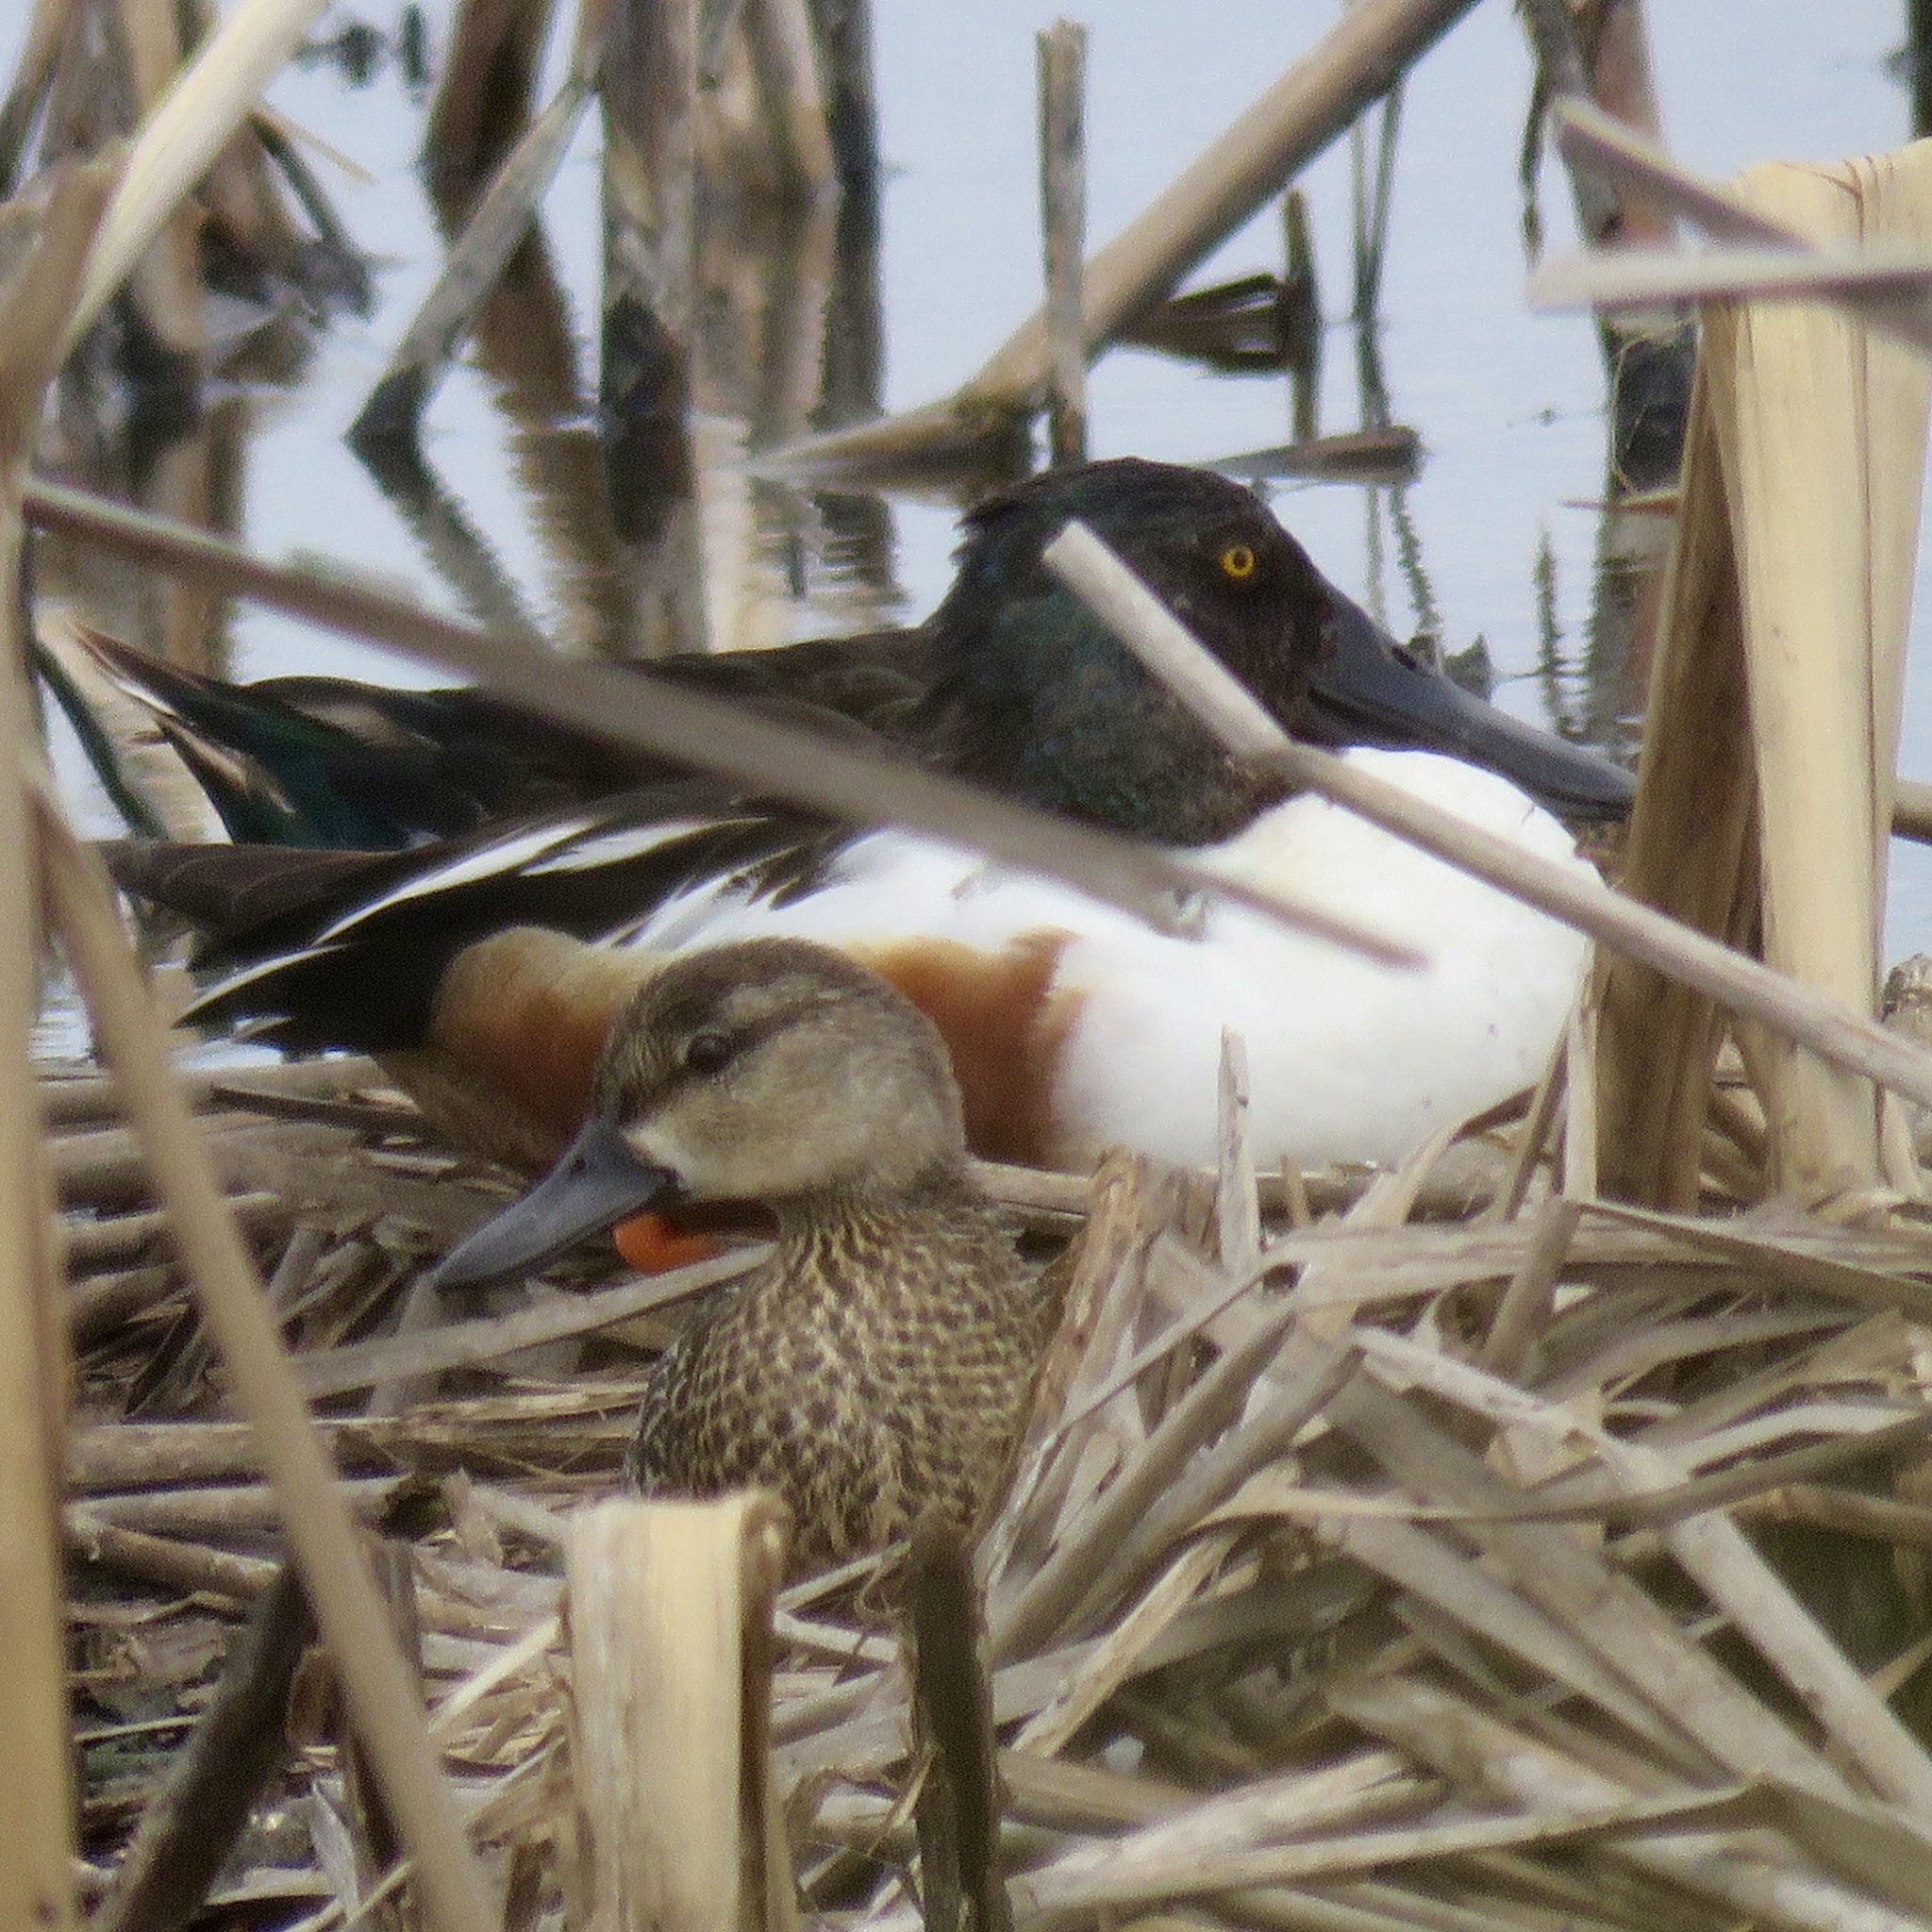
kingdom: Animalia
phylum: Chordata
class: Aves
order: Anseriformes
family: Anatidae
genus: Spatula
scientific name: Spatula clypeata
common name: Northern shoveler
